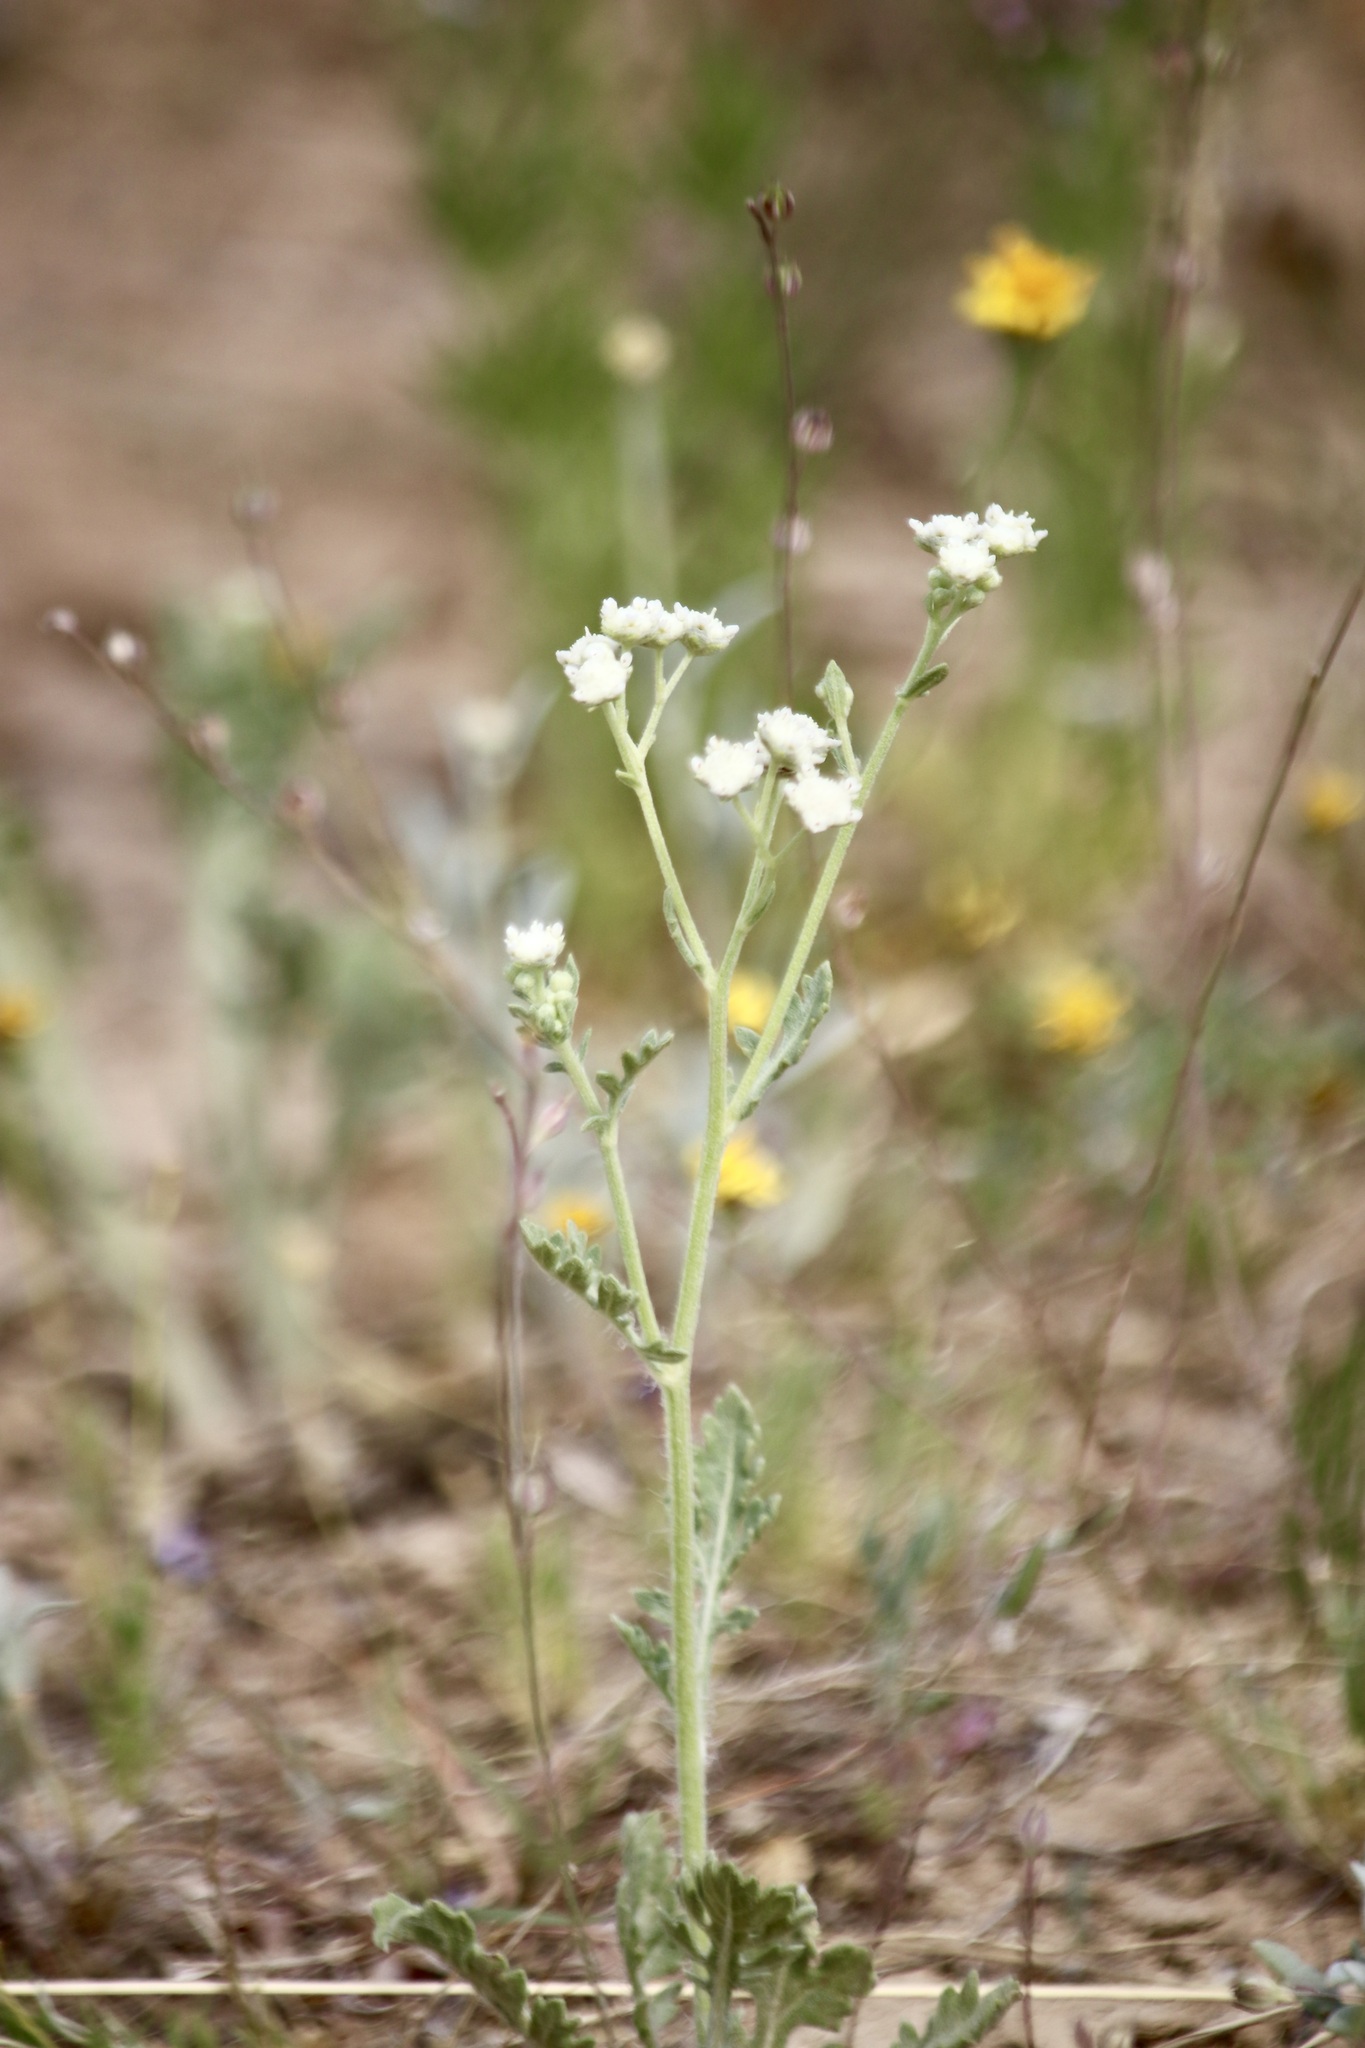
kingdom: Plantae
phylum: Tracheophyta
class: Magnoliopsida
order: Asterales
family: Asteraceae
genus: Parthenium
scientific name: Parthenium confertum
